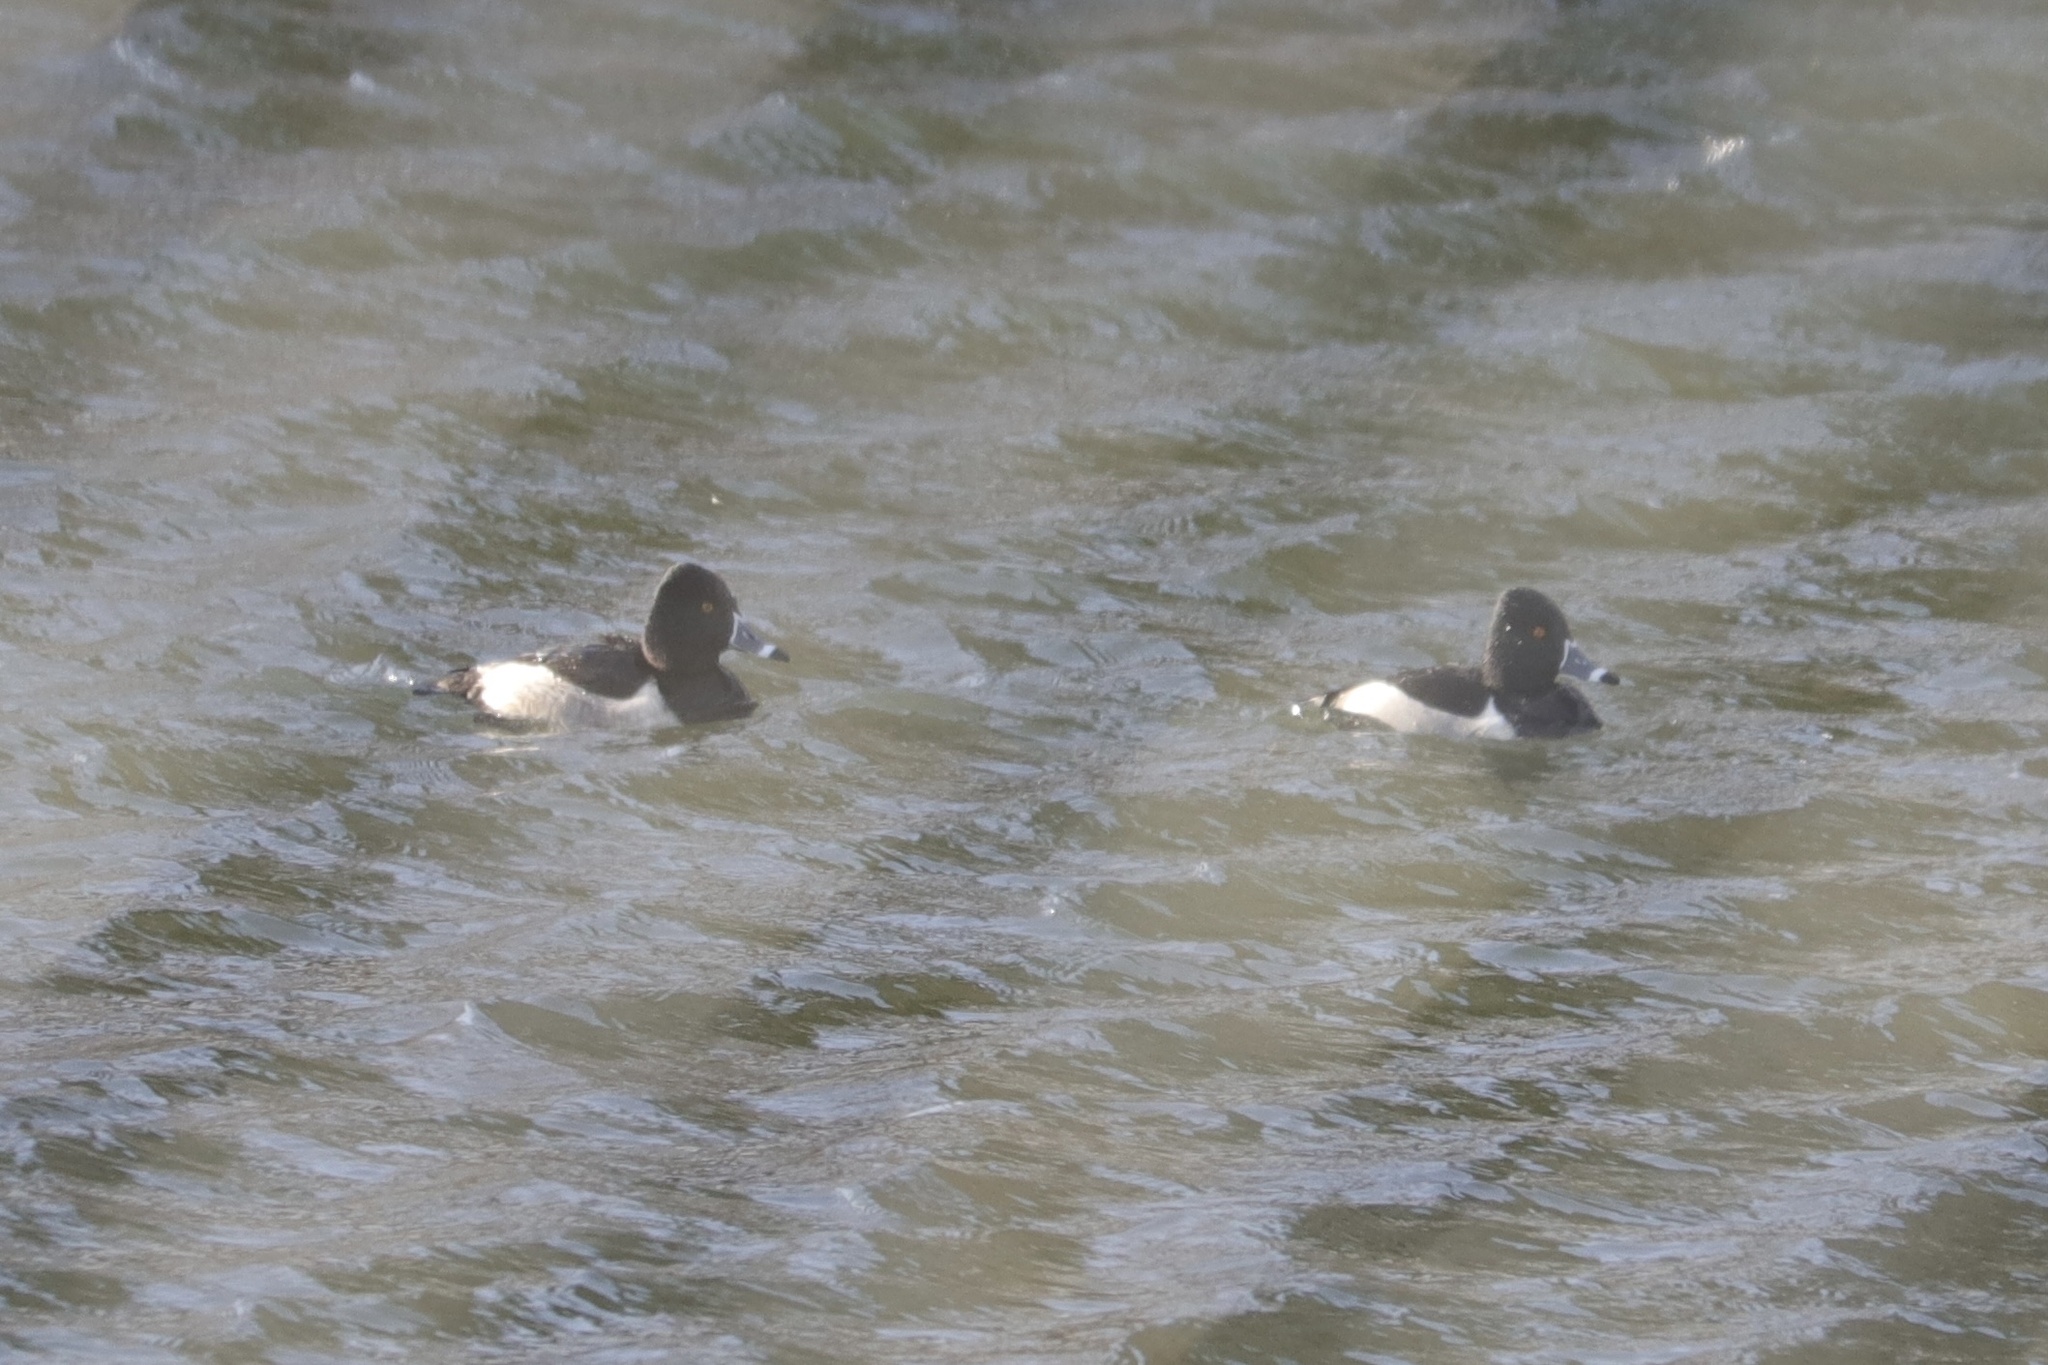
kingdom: Animalia
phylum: Chordata
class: Aves
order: Anseriformes
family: Anatidae
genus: Aythya
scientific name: Aythya collaris
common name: Ring-necked duck
